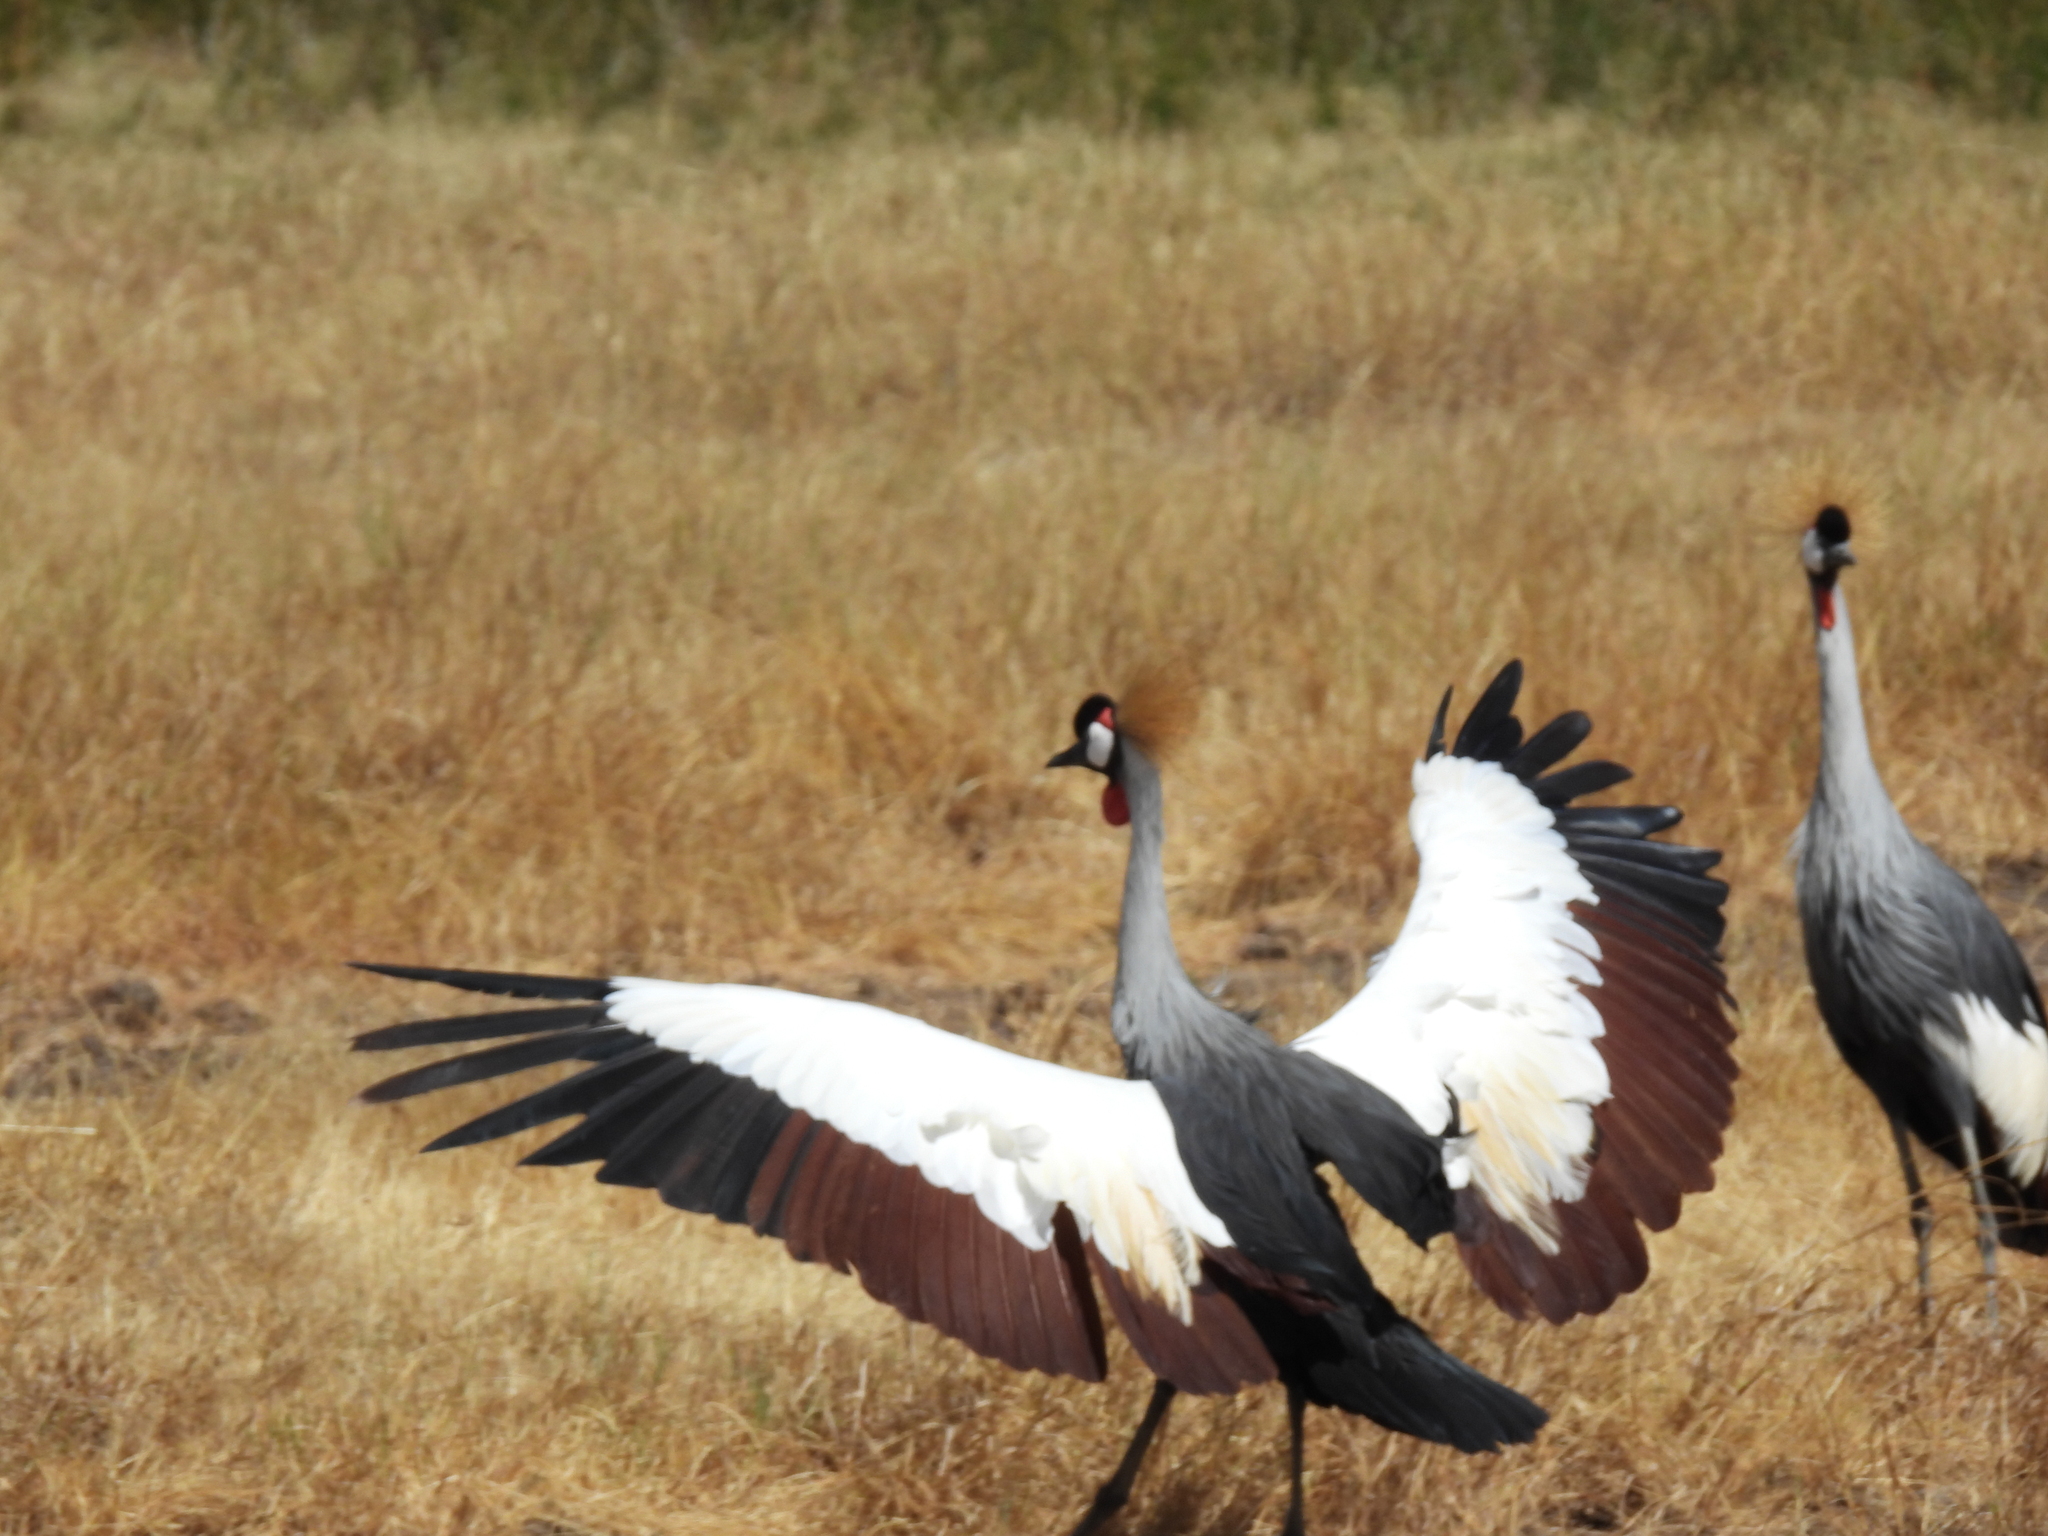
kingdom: Animalia
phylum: Chordata
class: Aves
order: Gruiformes
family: Gruidae
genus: Balearica
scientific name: Balearica regulorum
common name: Grey crowned crane
